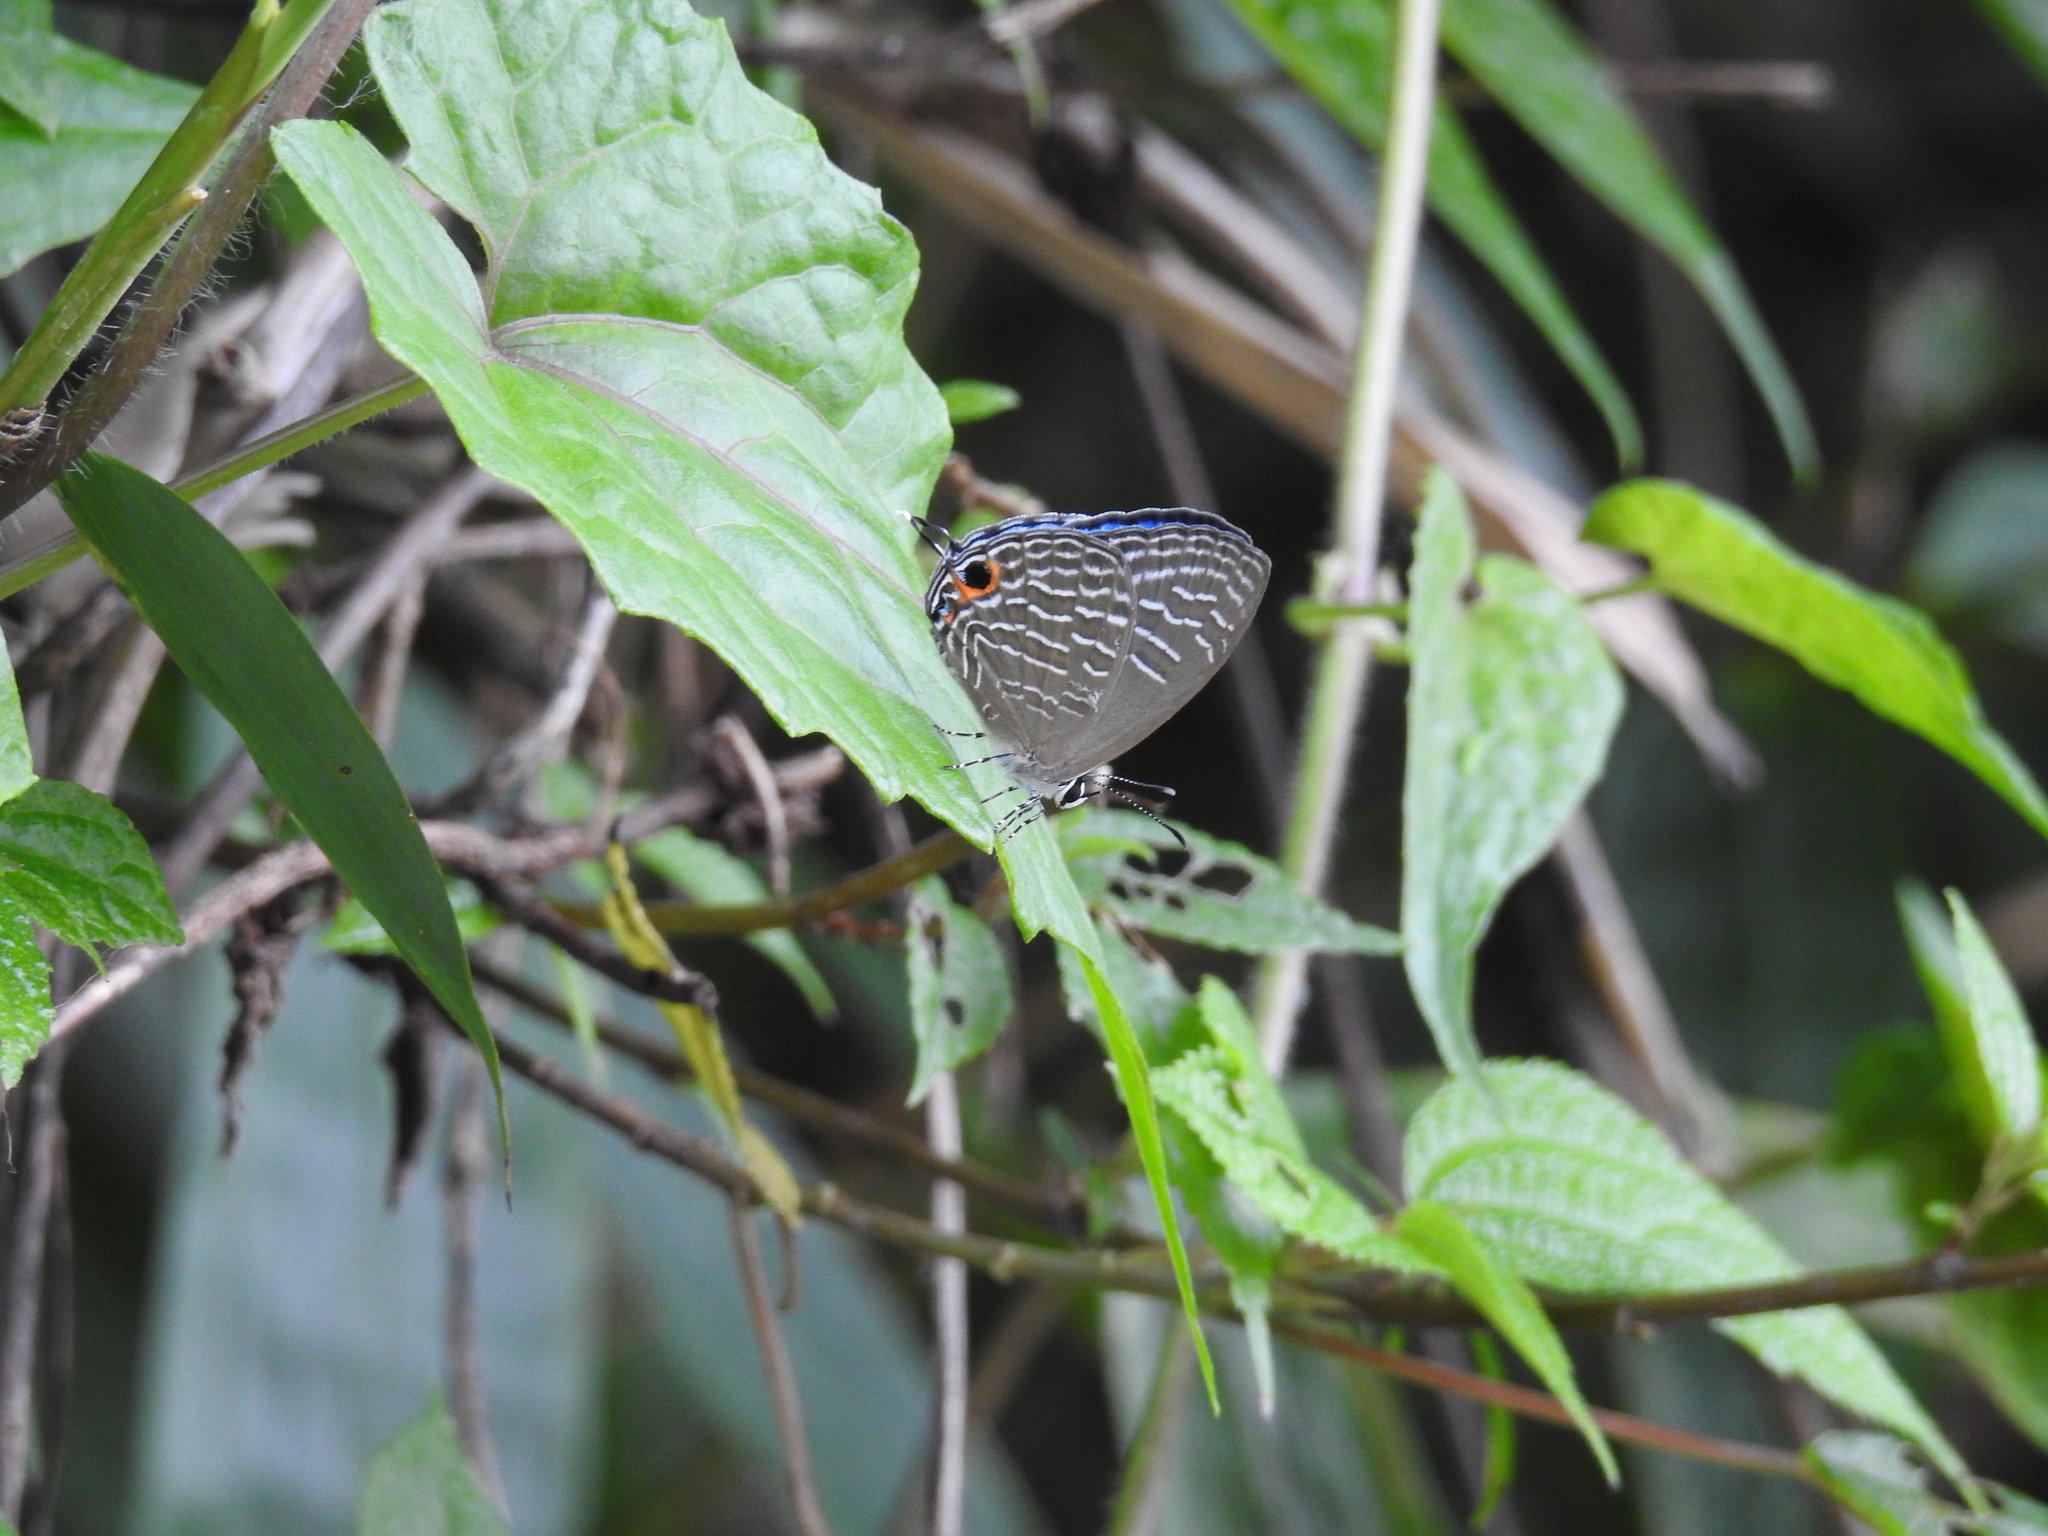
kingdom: Animalia
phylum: Arthropoda
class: Insecta
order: Lepidoptera
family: Lycaenidae
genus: Jamides
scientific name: Jamides elpis
